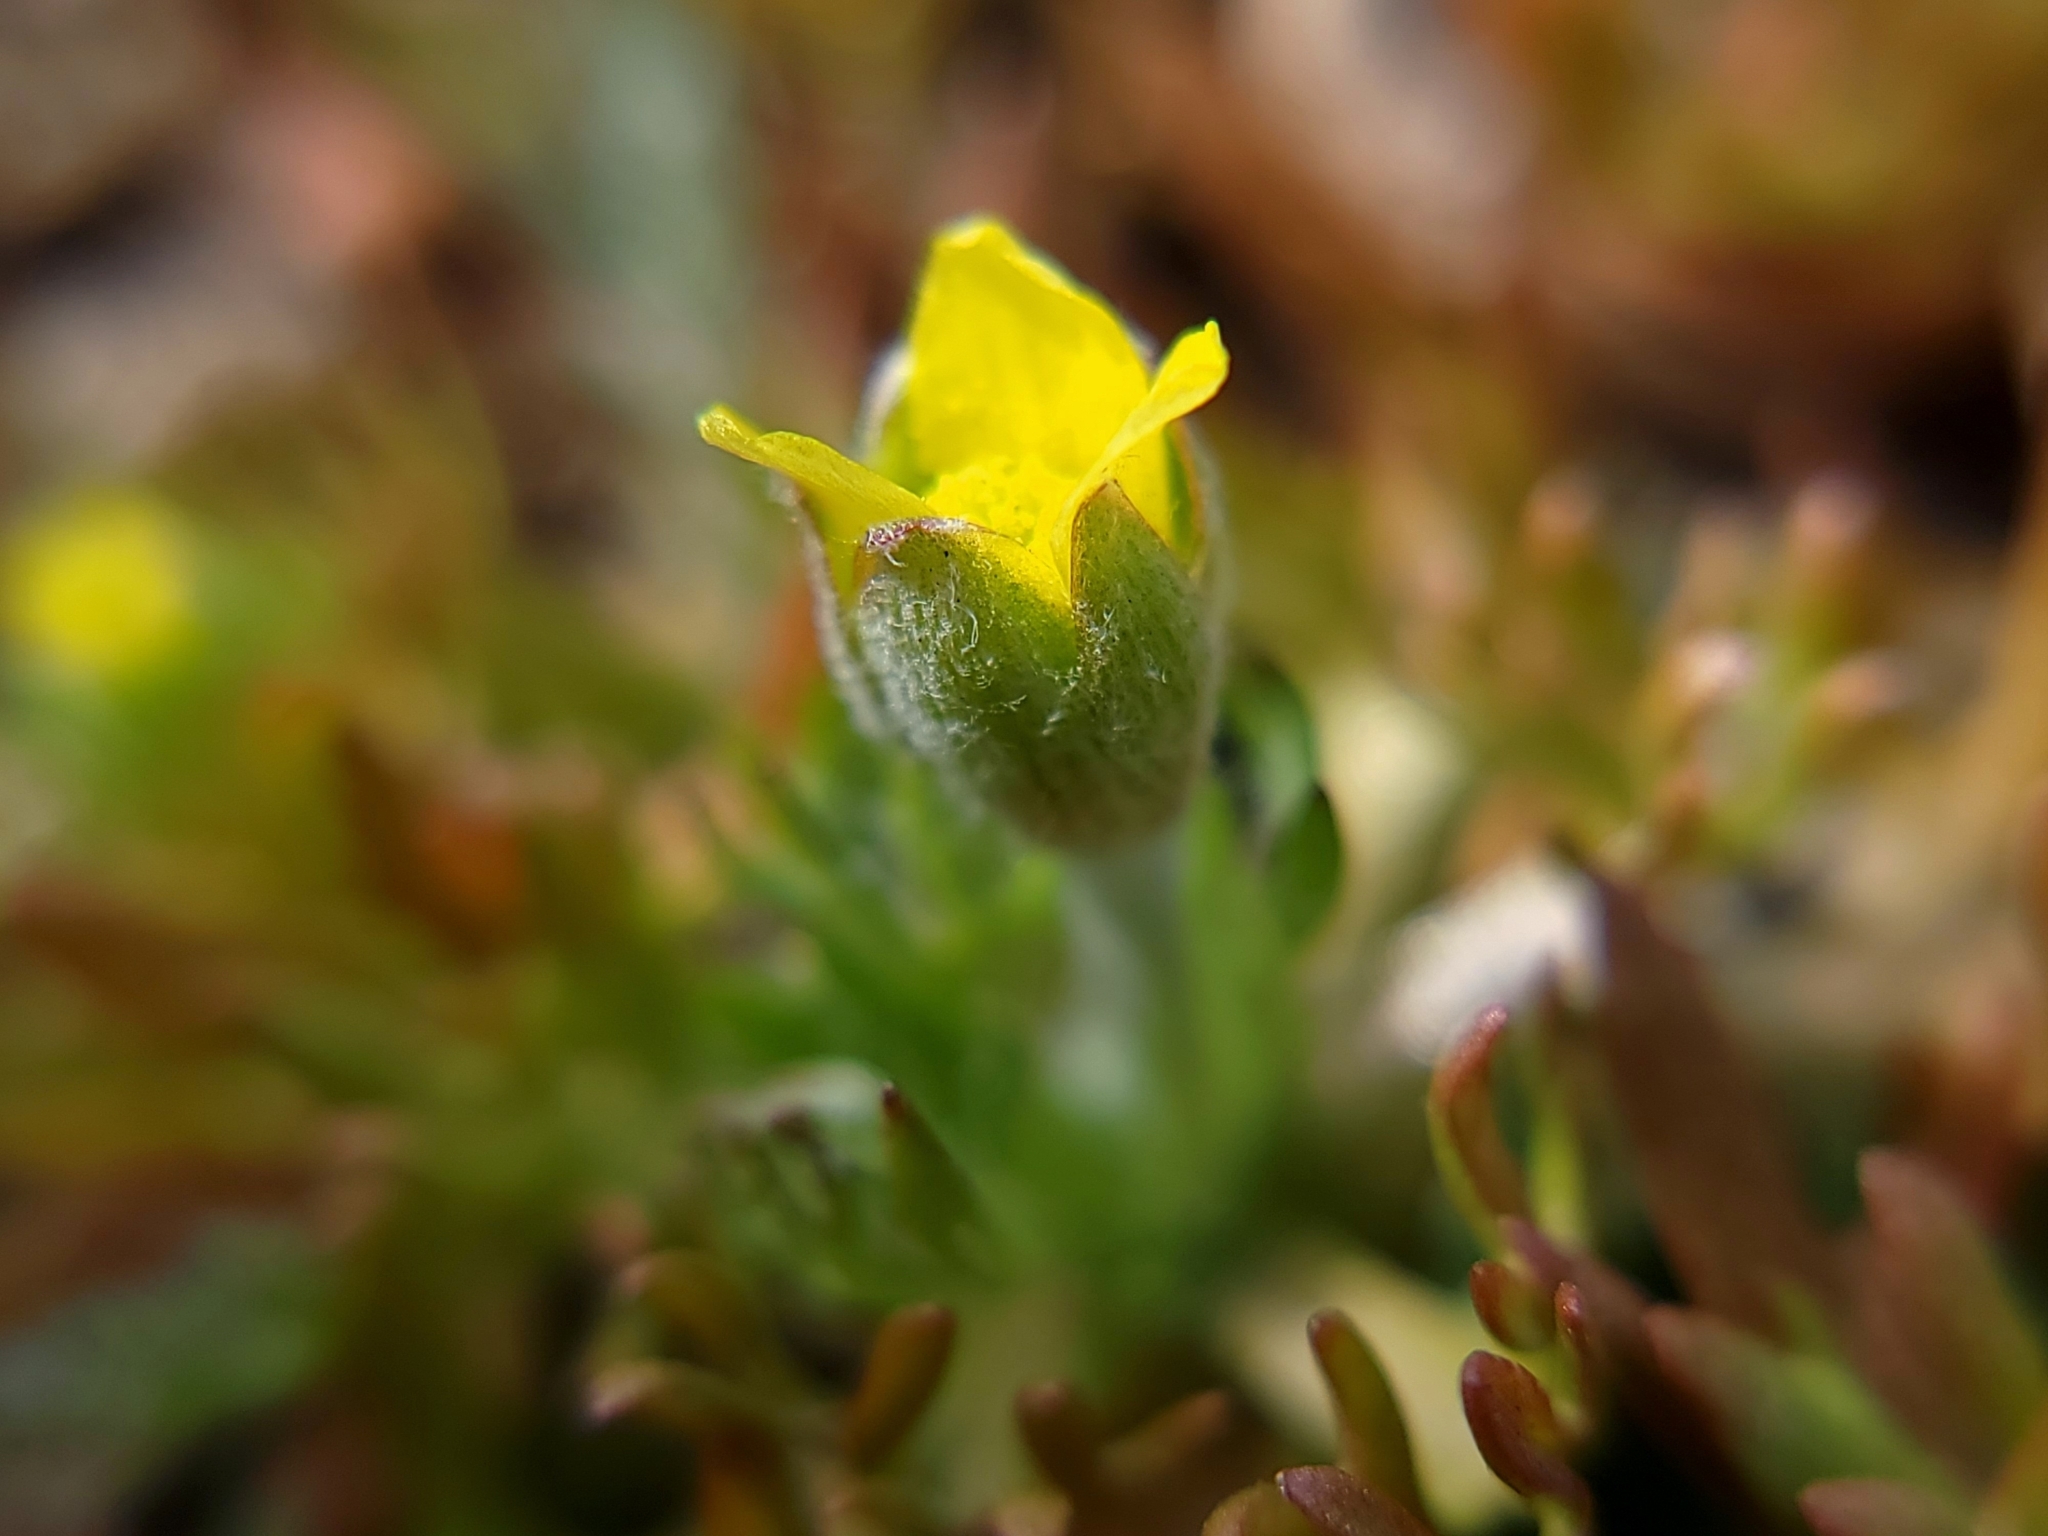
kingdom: Plantae
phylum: Tracheophyta
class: Magnoliopsida
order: Ranunculales
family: Ranunculaceae
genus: Ceratocephala
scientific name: Ceratocephala orthoceras
